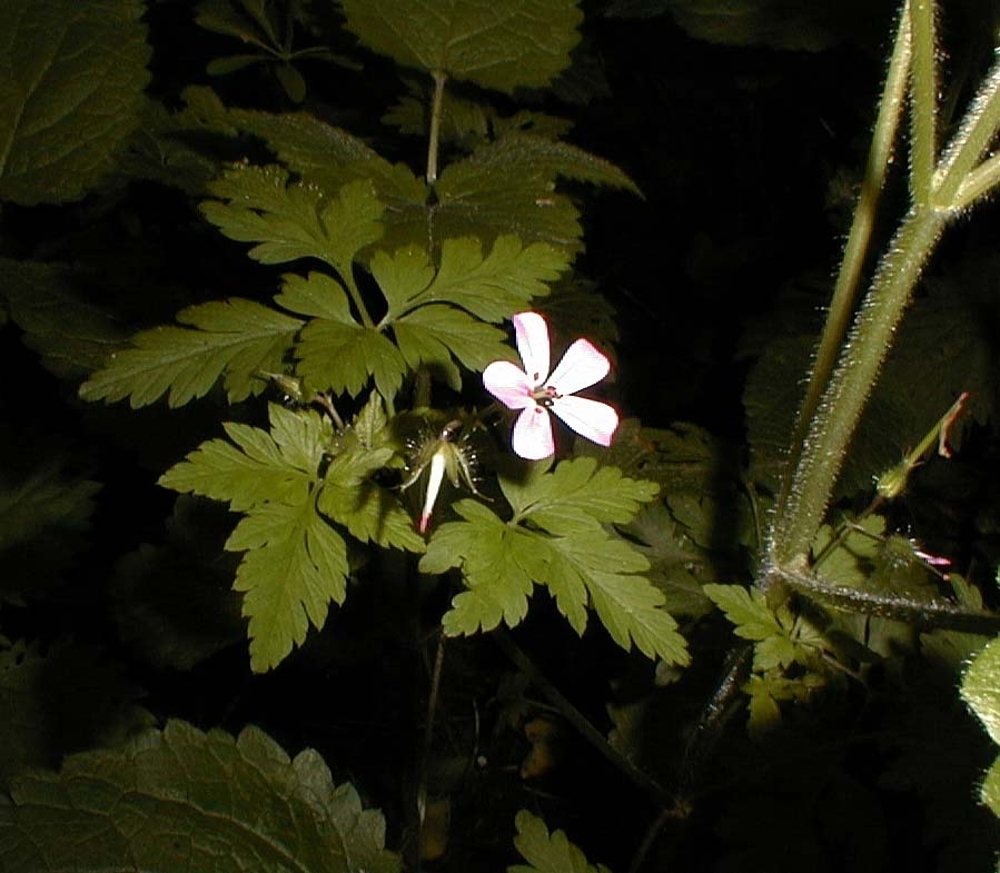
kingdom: Plantae
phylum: Tracheophyta
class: Magnoliopsida
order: Geraniales
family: Geraniaceae
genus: Geranium
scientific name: Geranium robertianum
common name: Herb-robert
